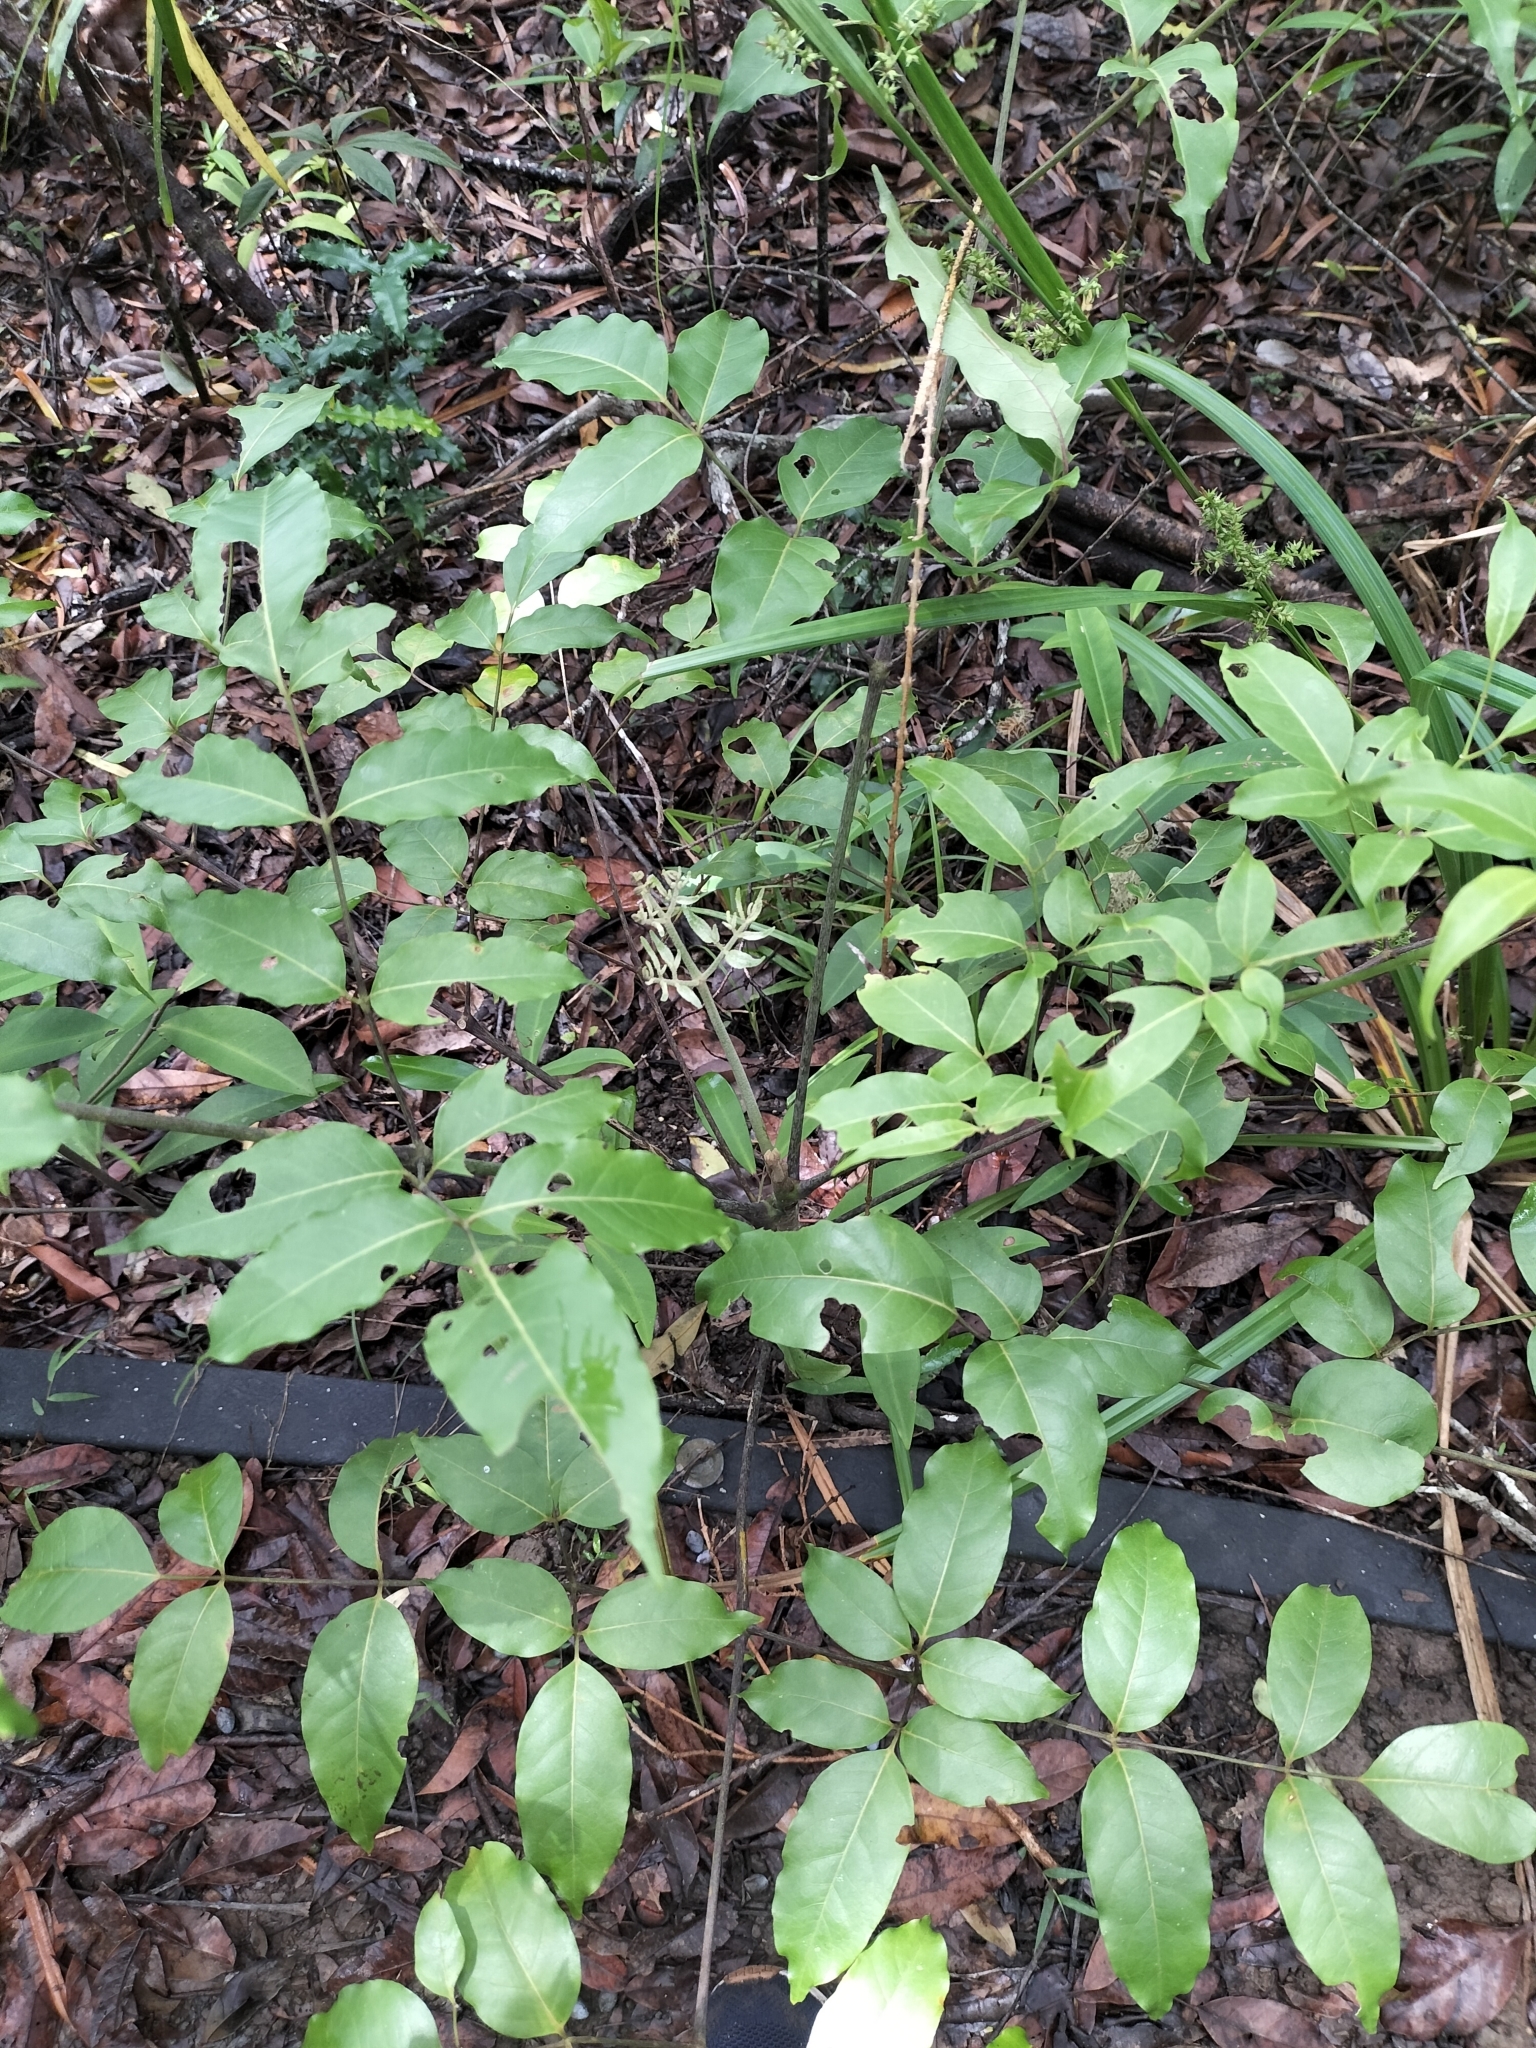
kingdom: Plantae
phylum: Tracheophyta
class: Magnoliopsida
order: Apiales
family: Araliaceae
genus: Polyscias
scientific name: Polyscias elegans
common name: Mowbulan whitewood
